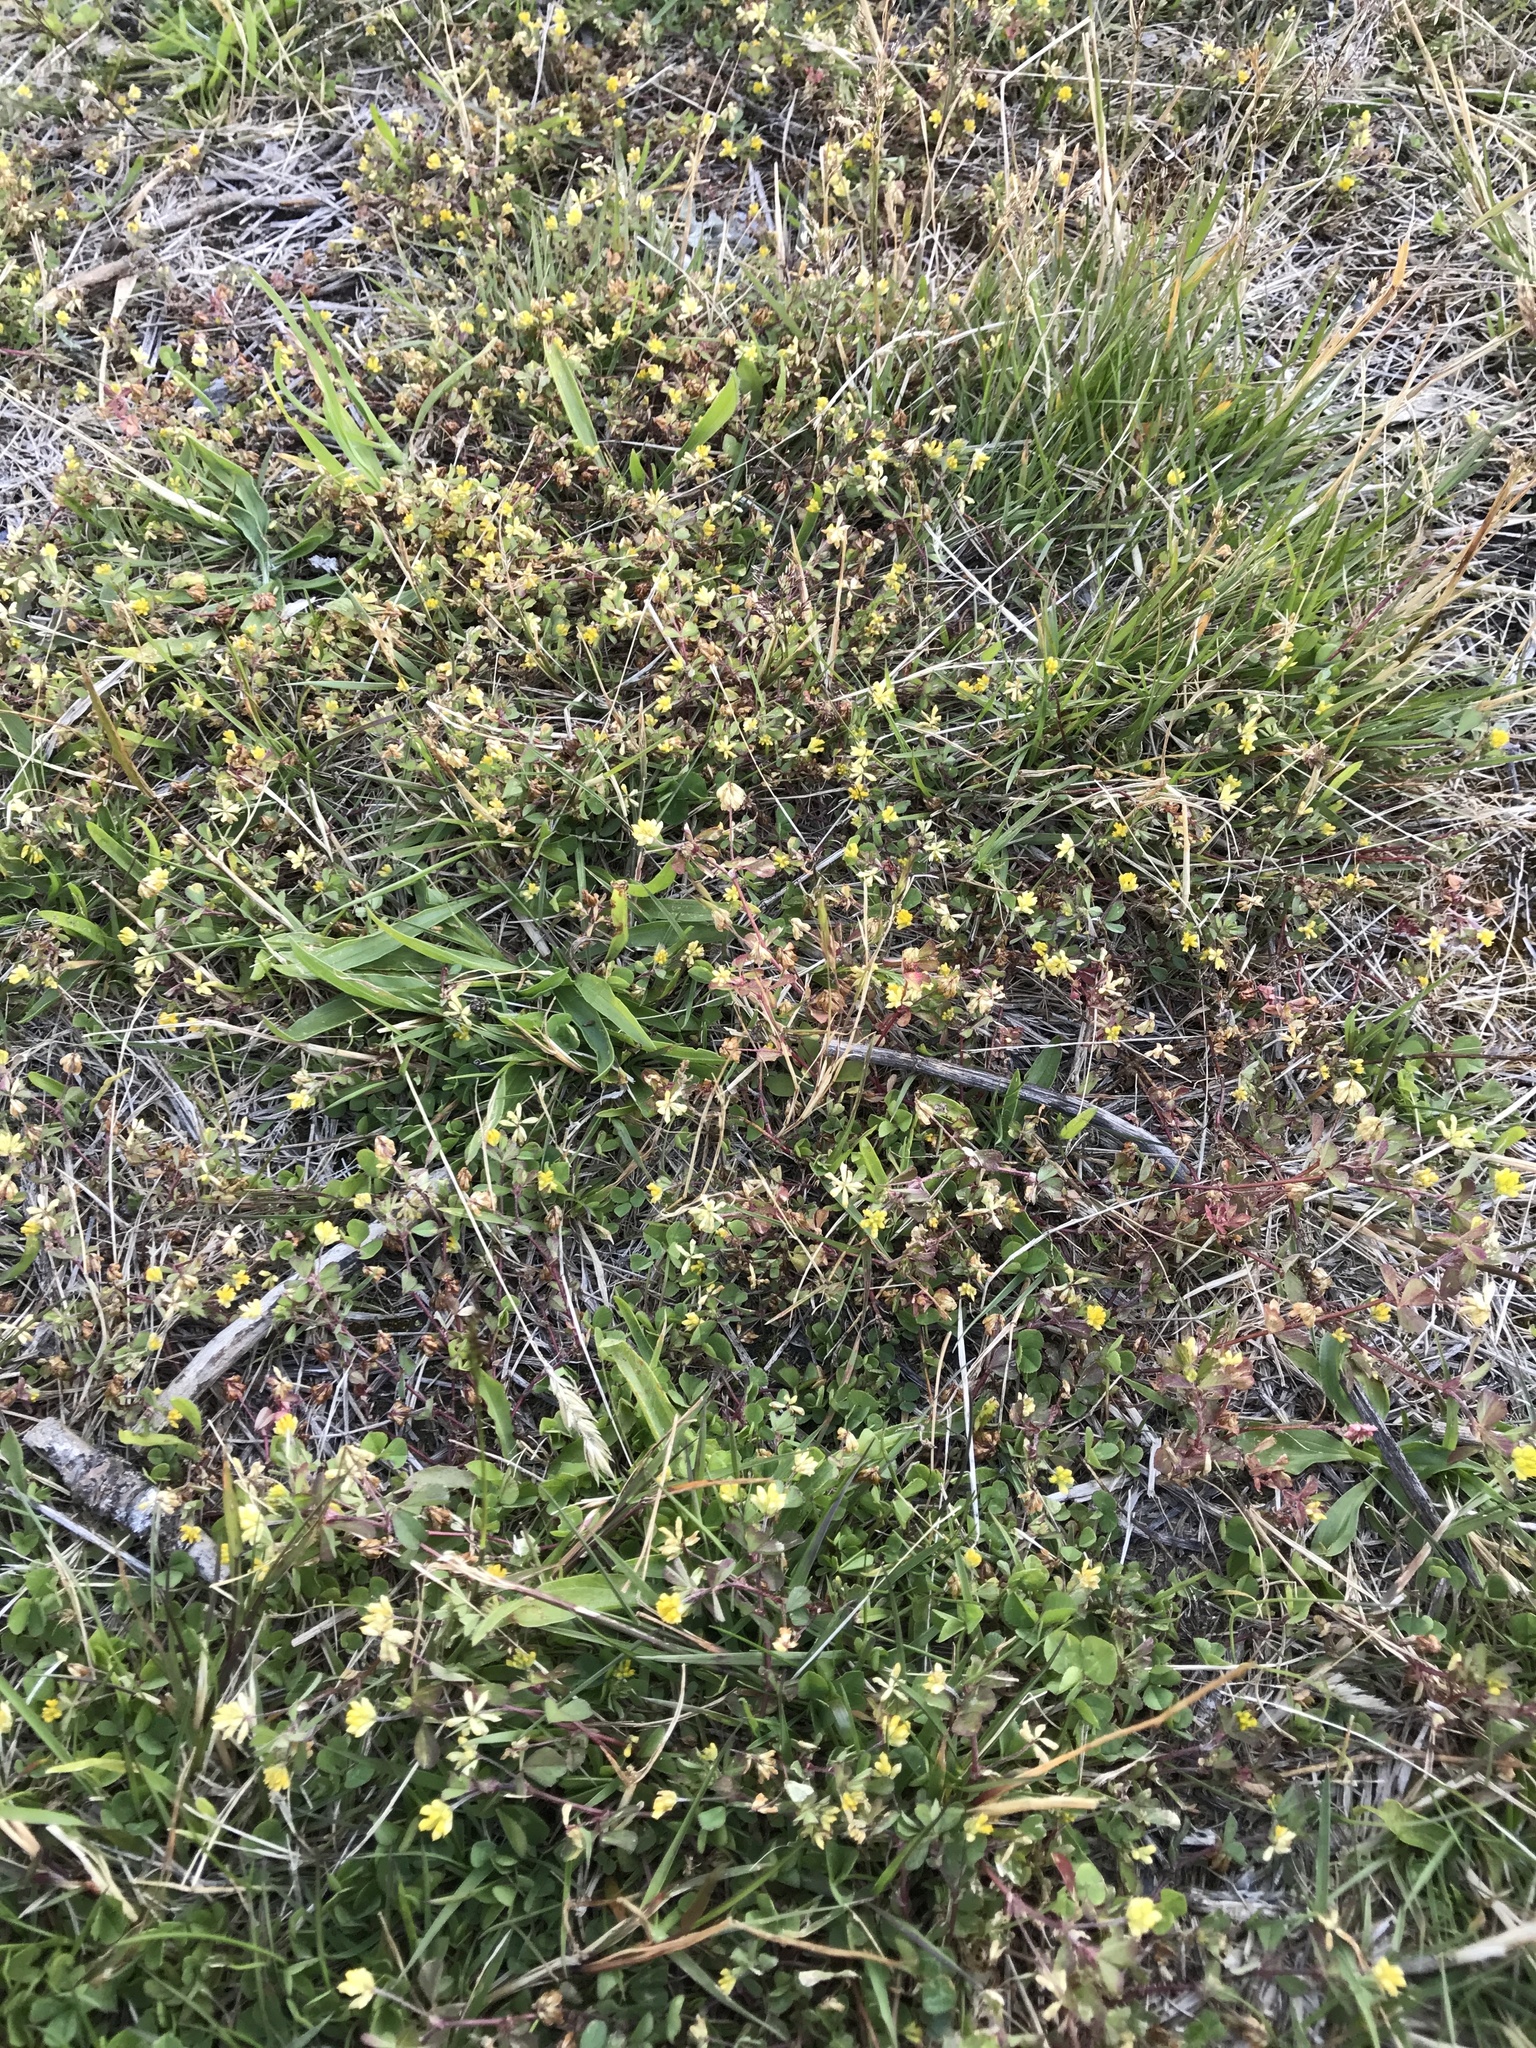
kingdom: Plantae
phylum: Tracheophyta
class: Magnoliopsida
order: Fabales
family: Fabaceae
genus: Trifolium
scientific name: Trifolium dubium
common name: Suckling clover
